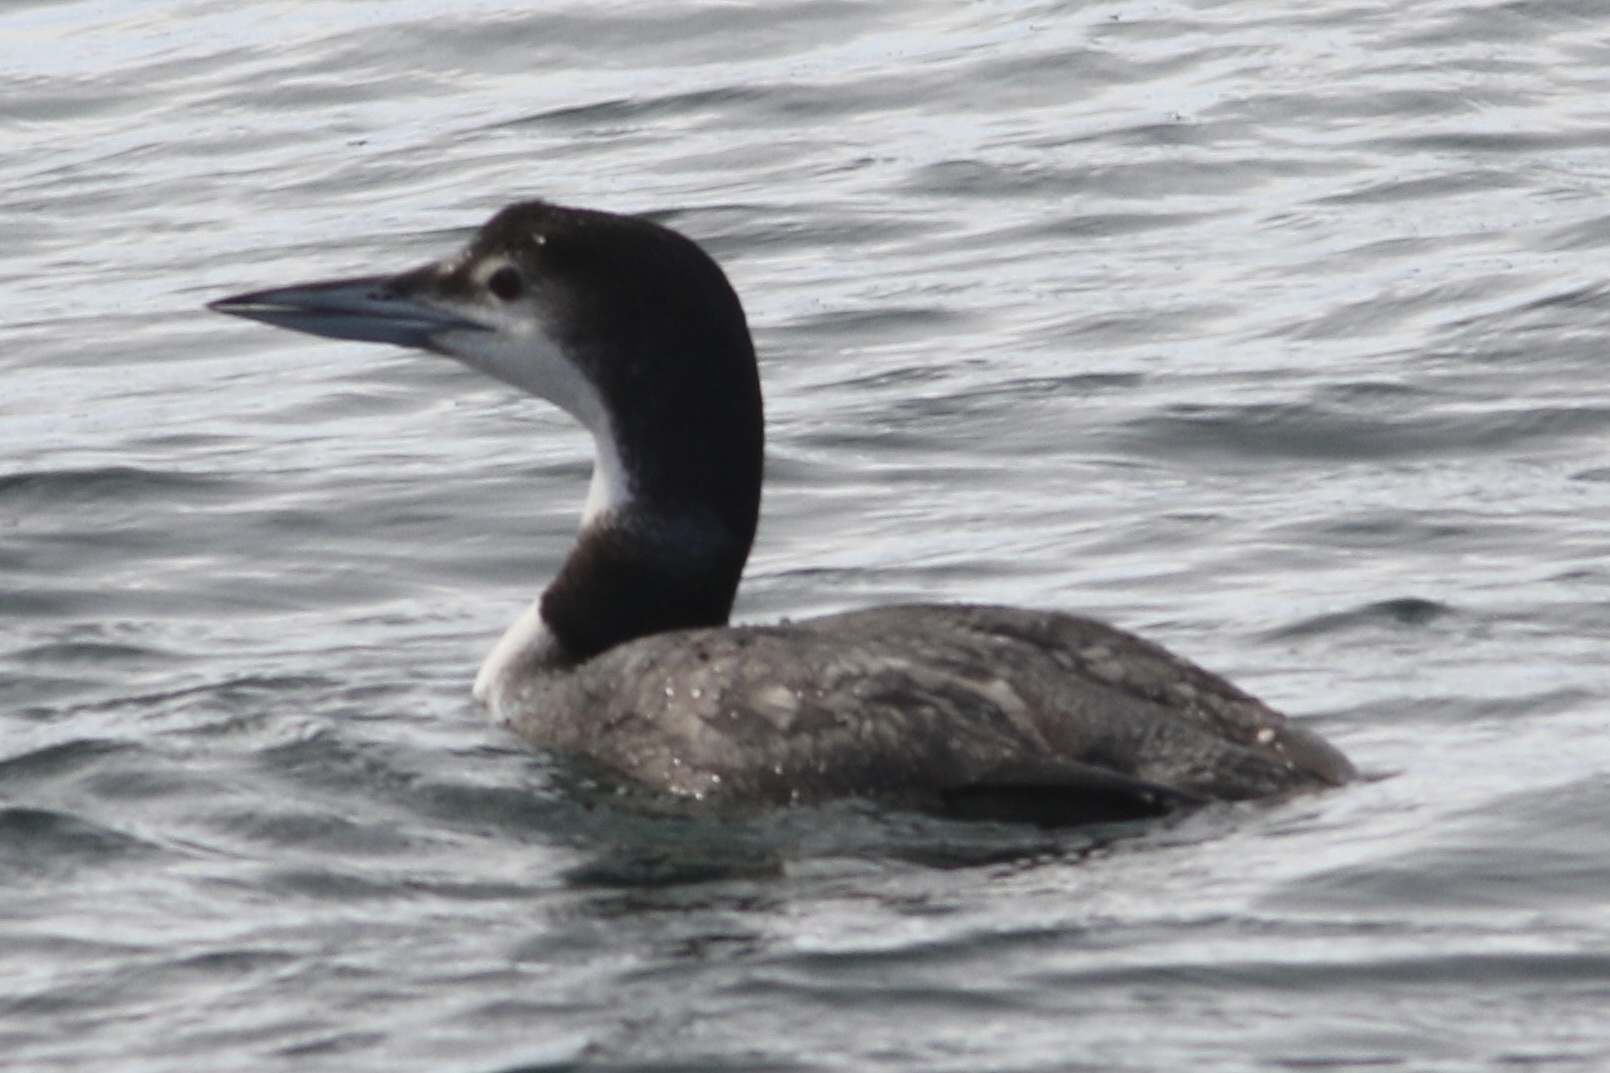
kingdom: Animalia
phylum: Chordata
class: Aves
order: Gaviiformes
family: Gaviidae
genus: Gavia
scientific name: Gavia immer
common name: Common loon
